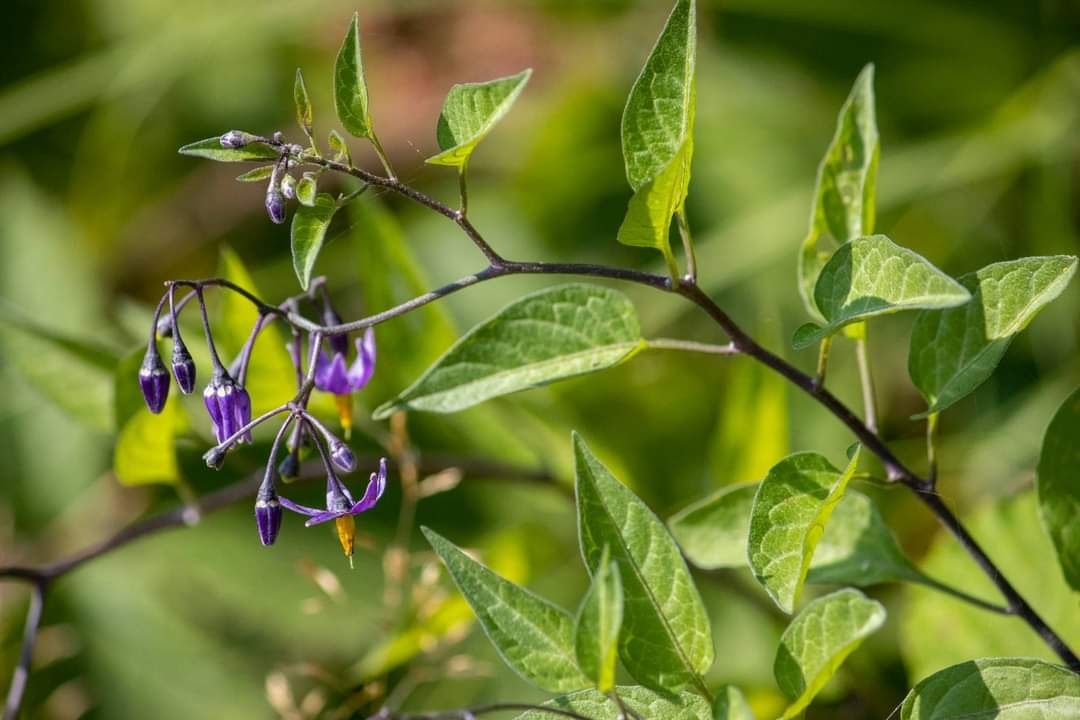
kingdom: Plantae
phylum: Tracheophyta
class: Magnoliopsida
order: Solanales
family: Solanaceae
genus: Solanum
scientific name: Solanum dulcamara
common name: Climbing nightshade
